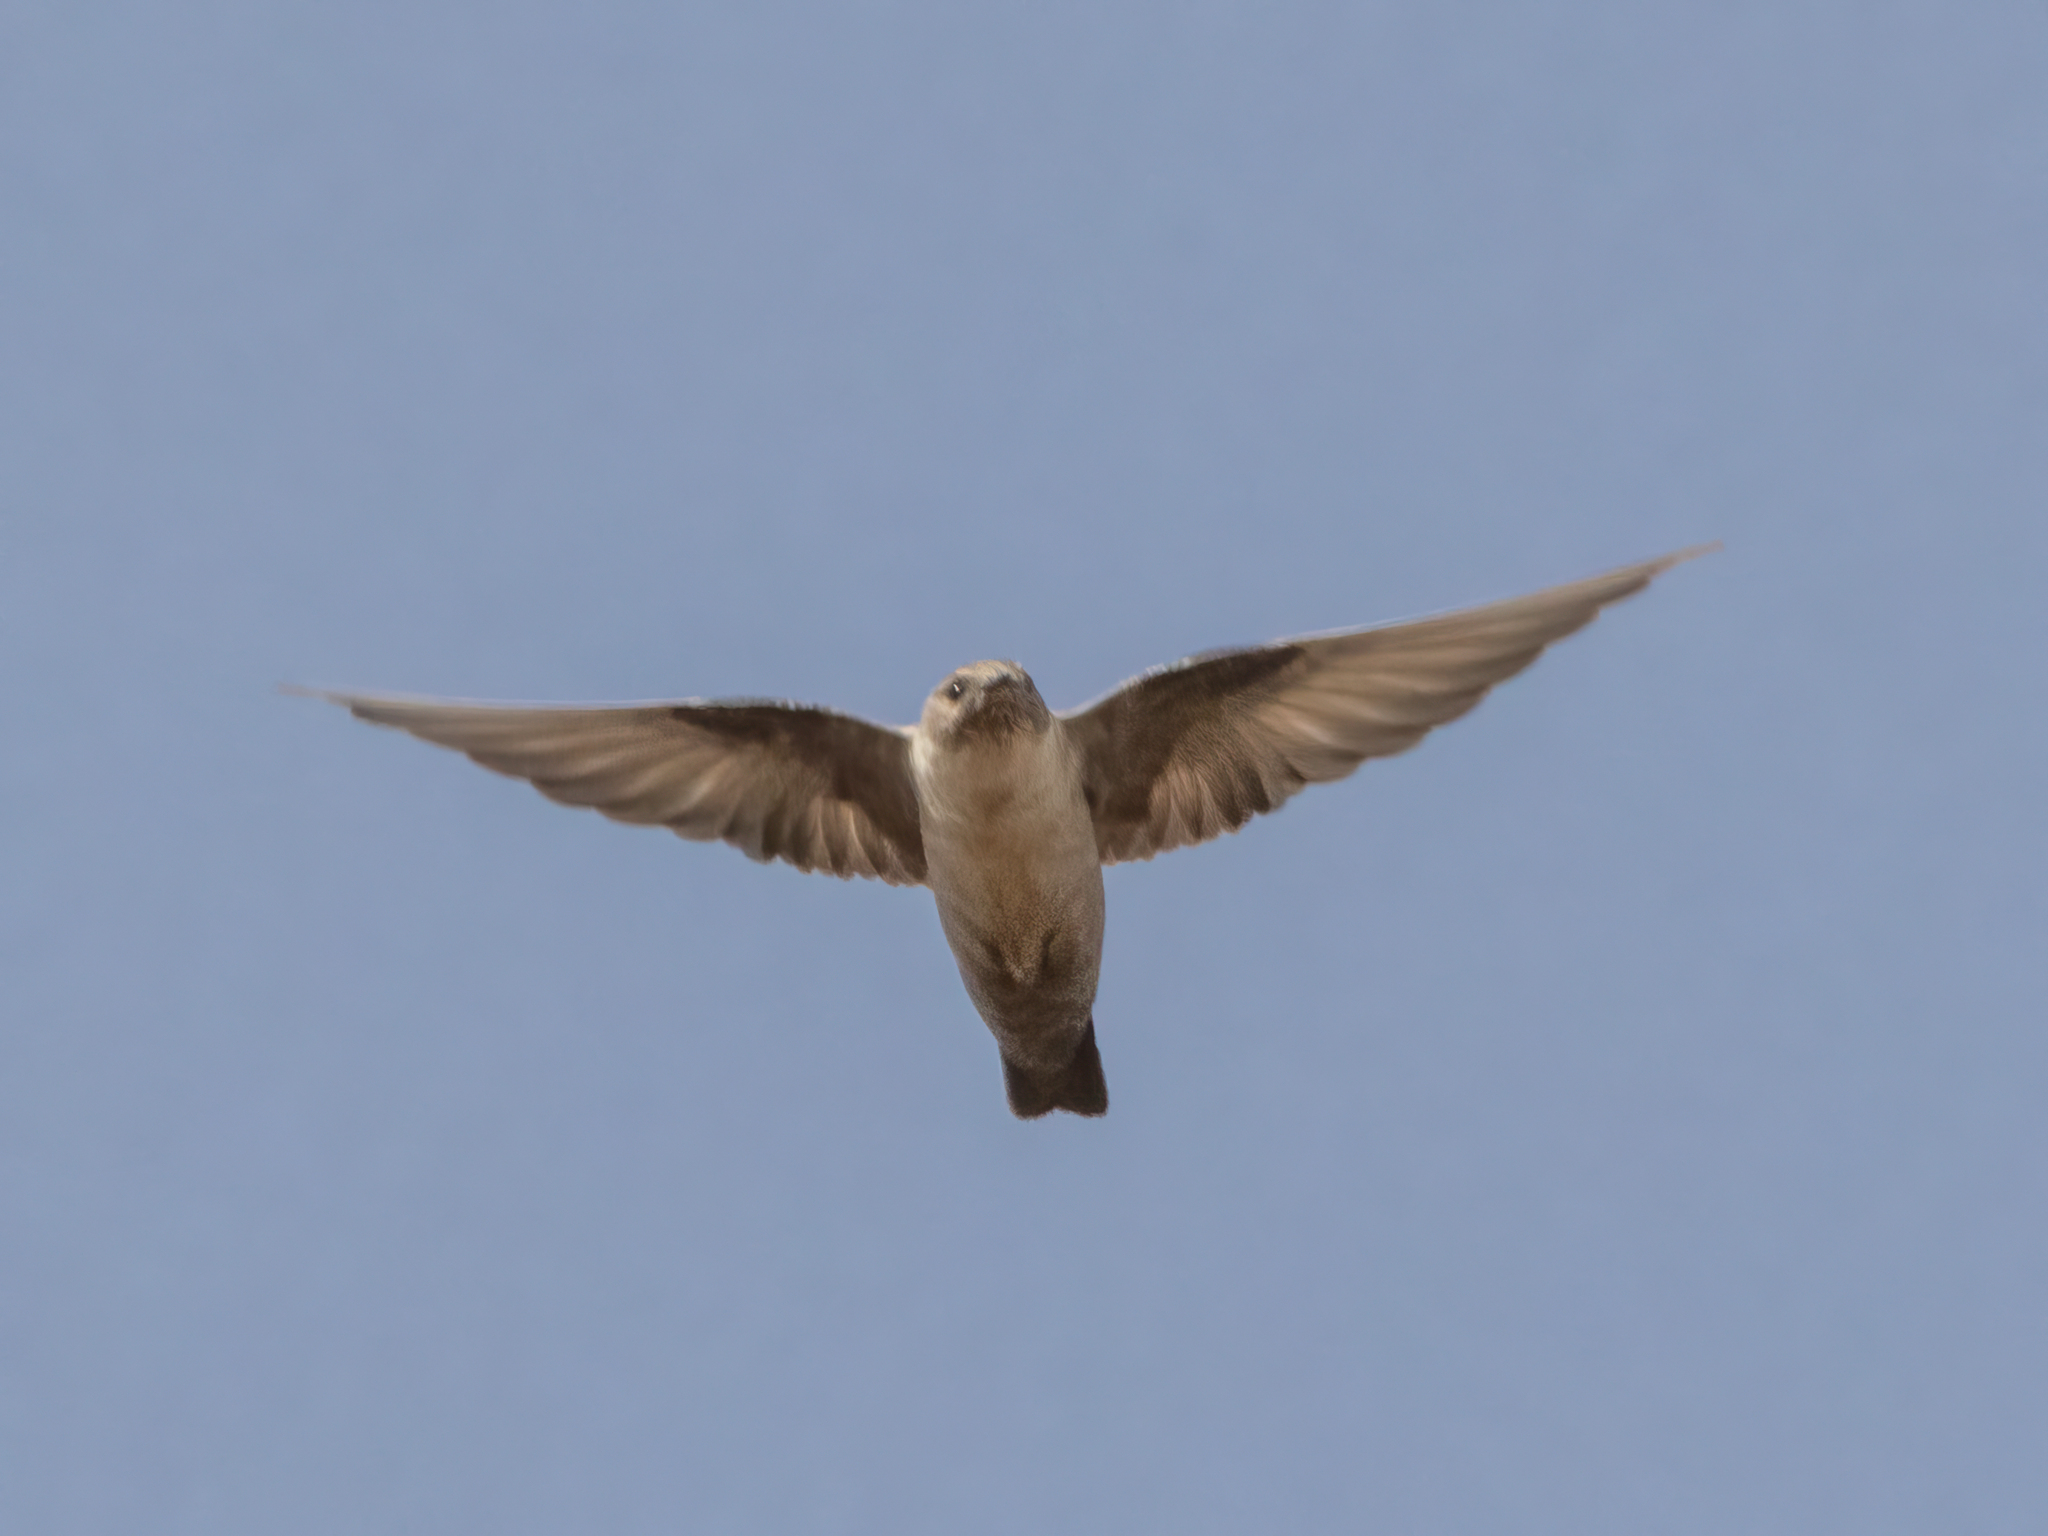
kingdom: Animalia
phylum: Chordata
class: Aves
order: Passeriformes
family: Hirundinidae
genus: Ptyonoprogne
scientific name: Ptyonoprogne rupestris
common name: Eurasian crag martin
